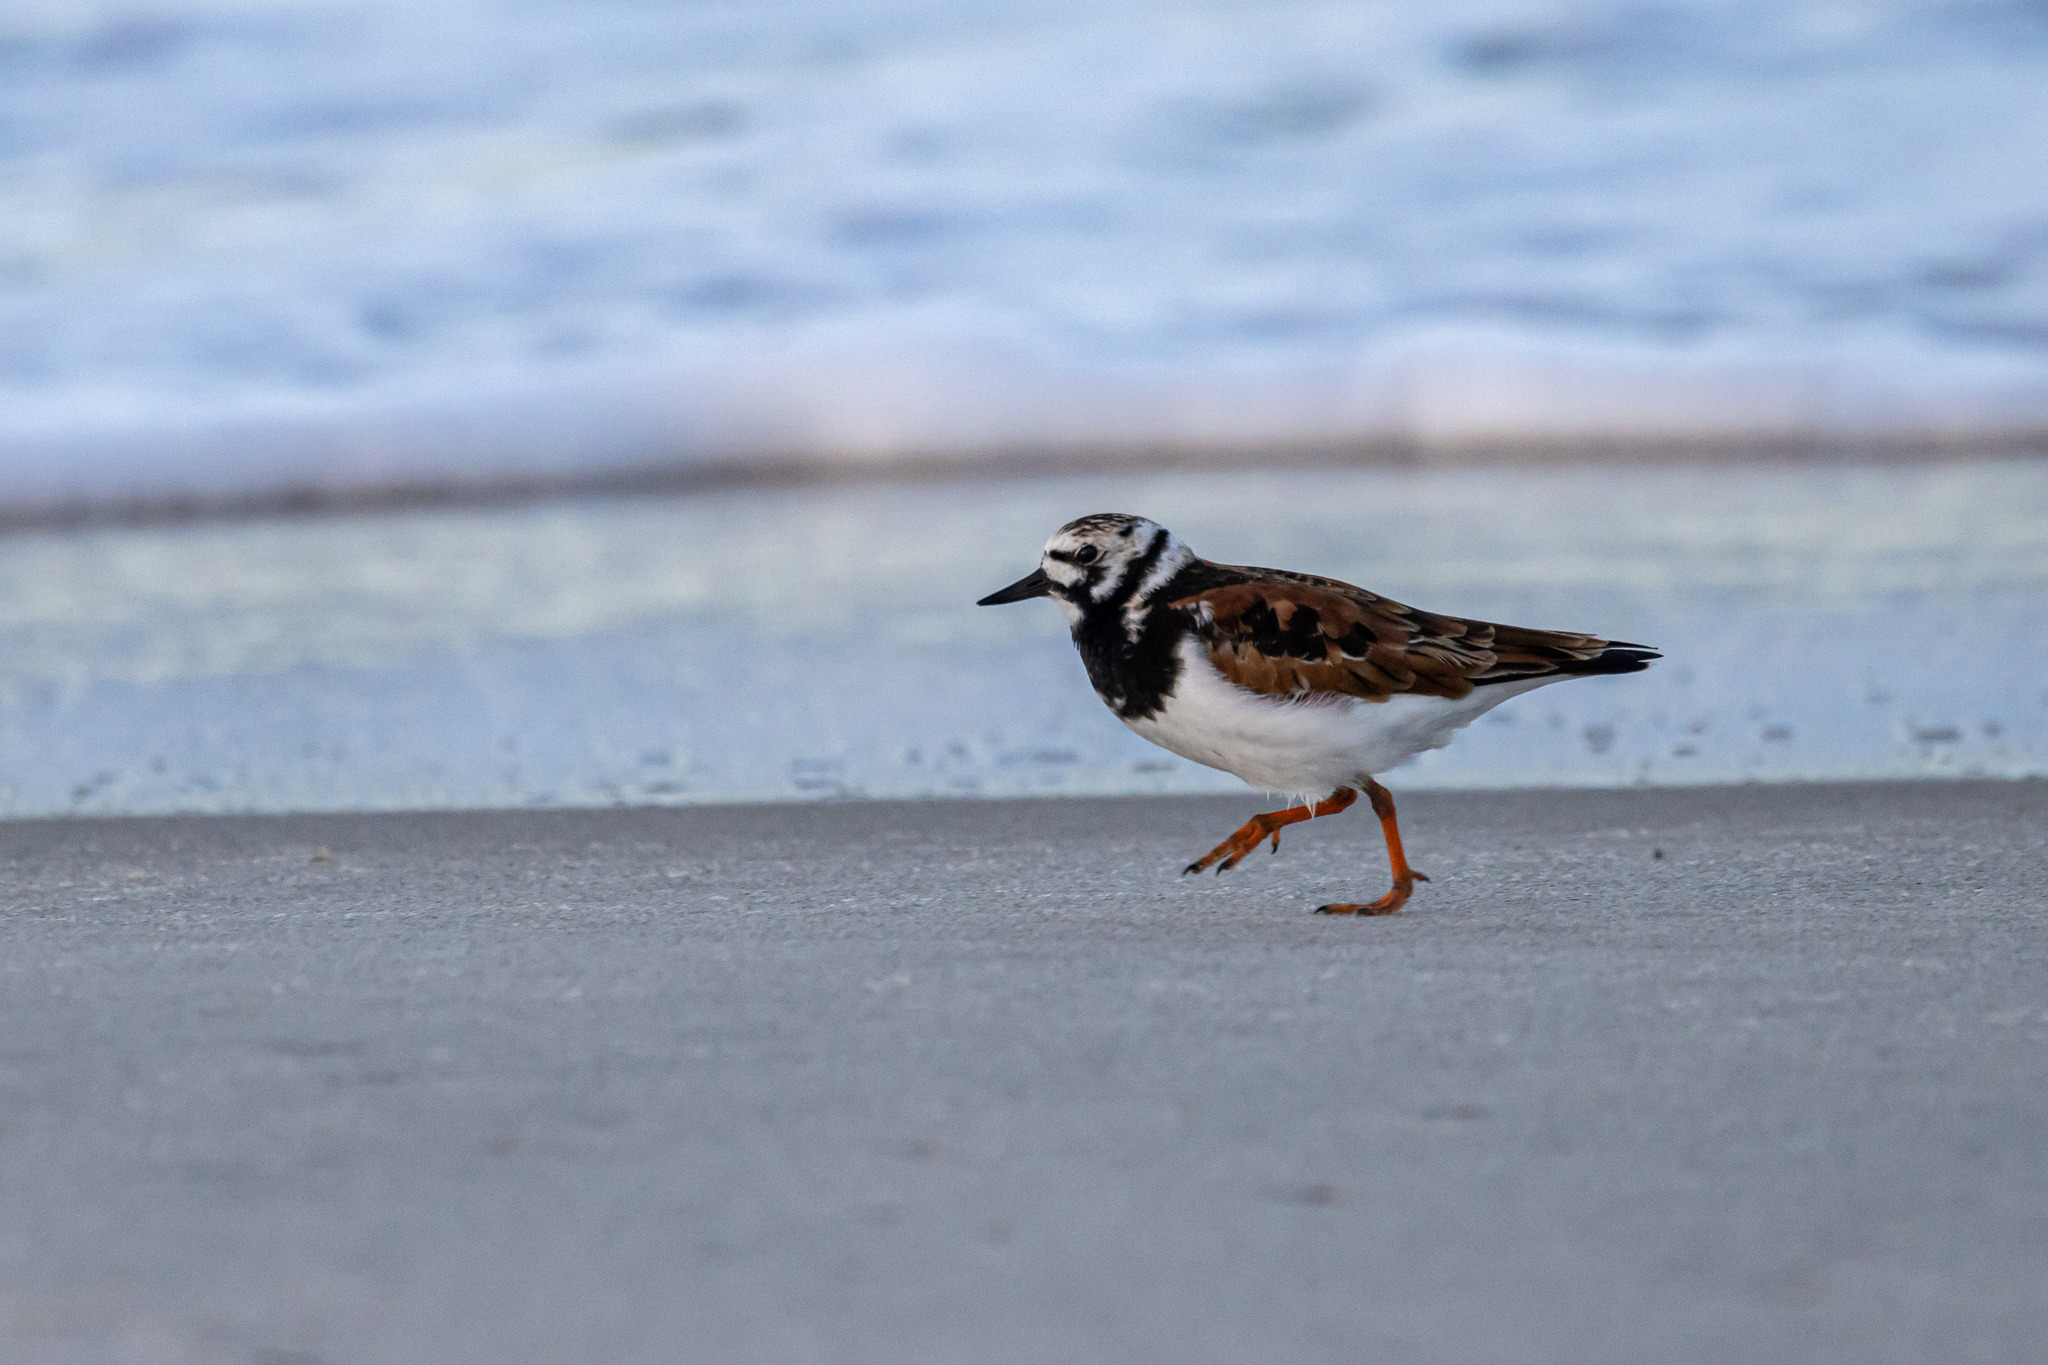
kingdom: Animalia
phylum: Chordata
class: Aves
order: Charadriiformes
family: Scolopacidae
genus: Arenaria
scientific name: Arenaria interpres
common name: Ruddy turnstone
